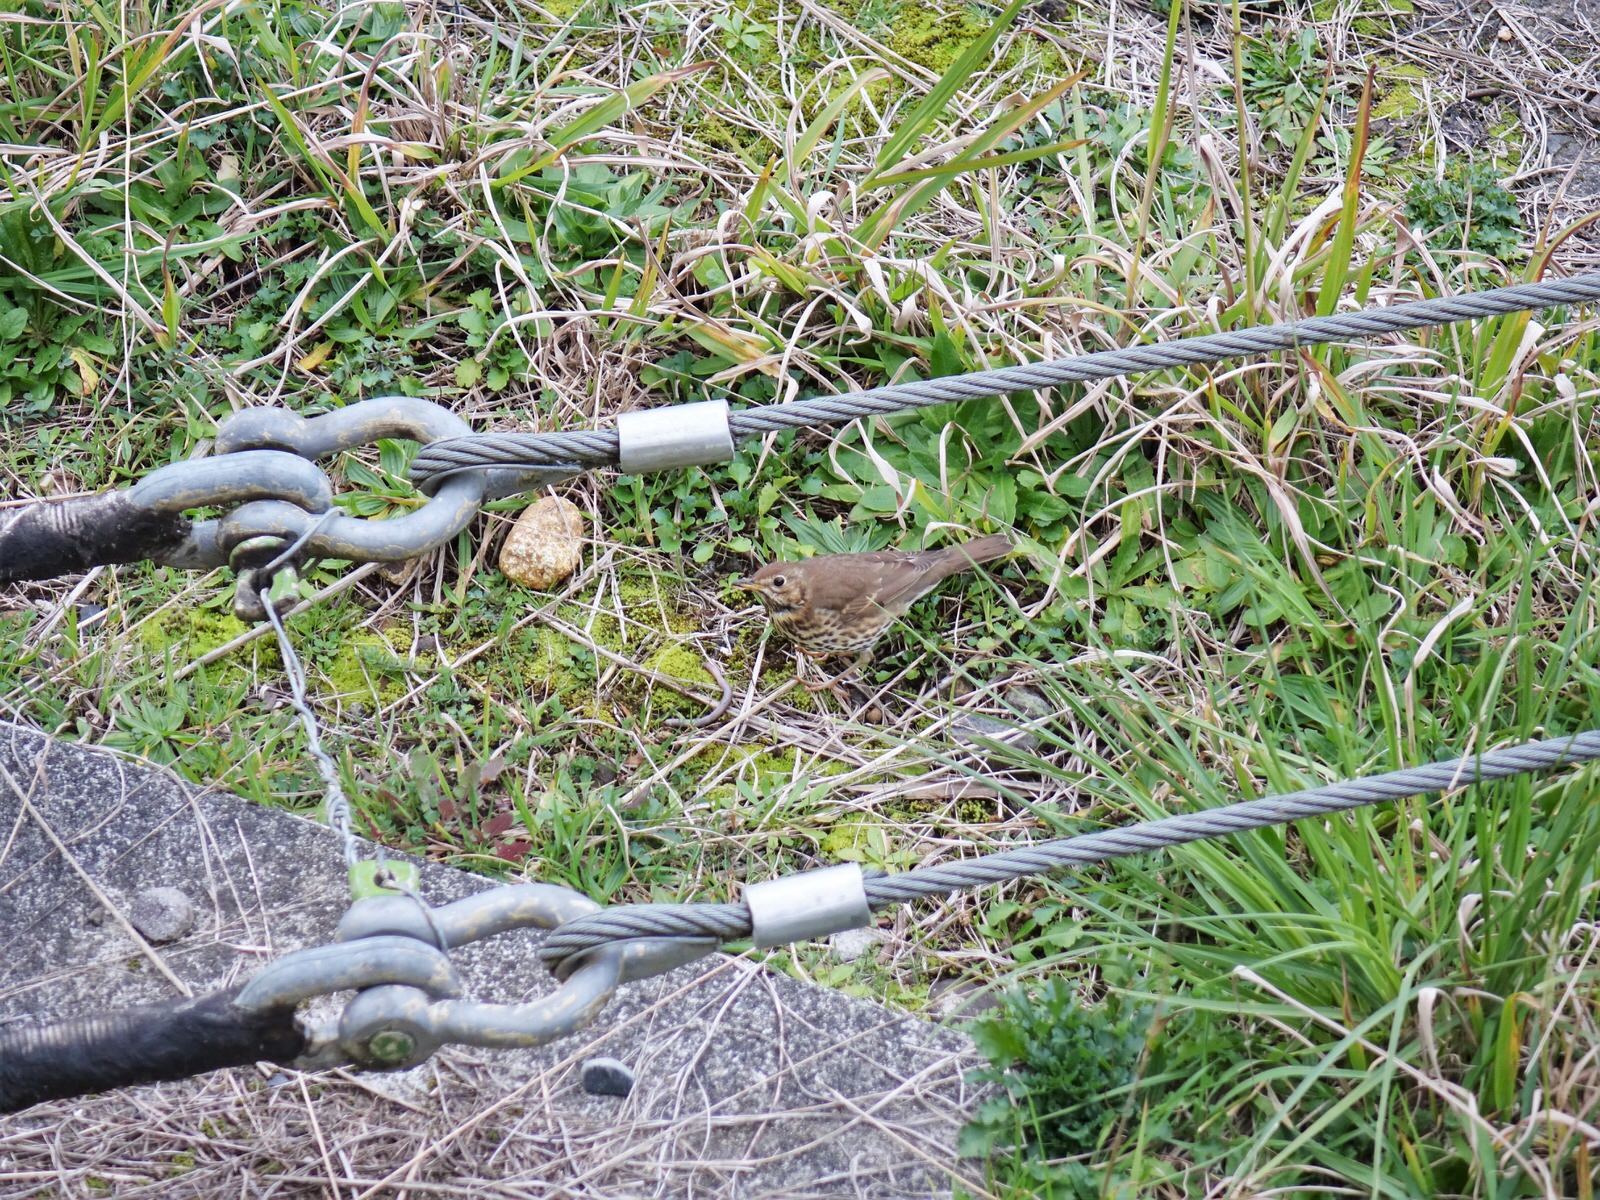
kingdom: Animalia
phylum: Chordata
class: Aves
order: Passeriformes
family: Turdidae
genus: Turdus
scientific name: Turdus philomelos
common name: Song thrush
